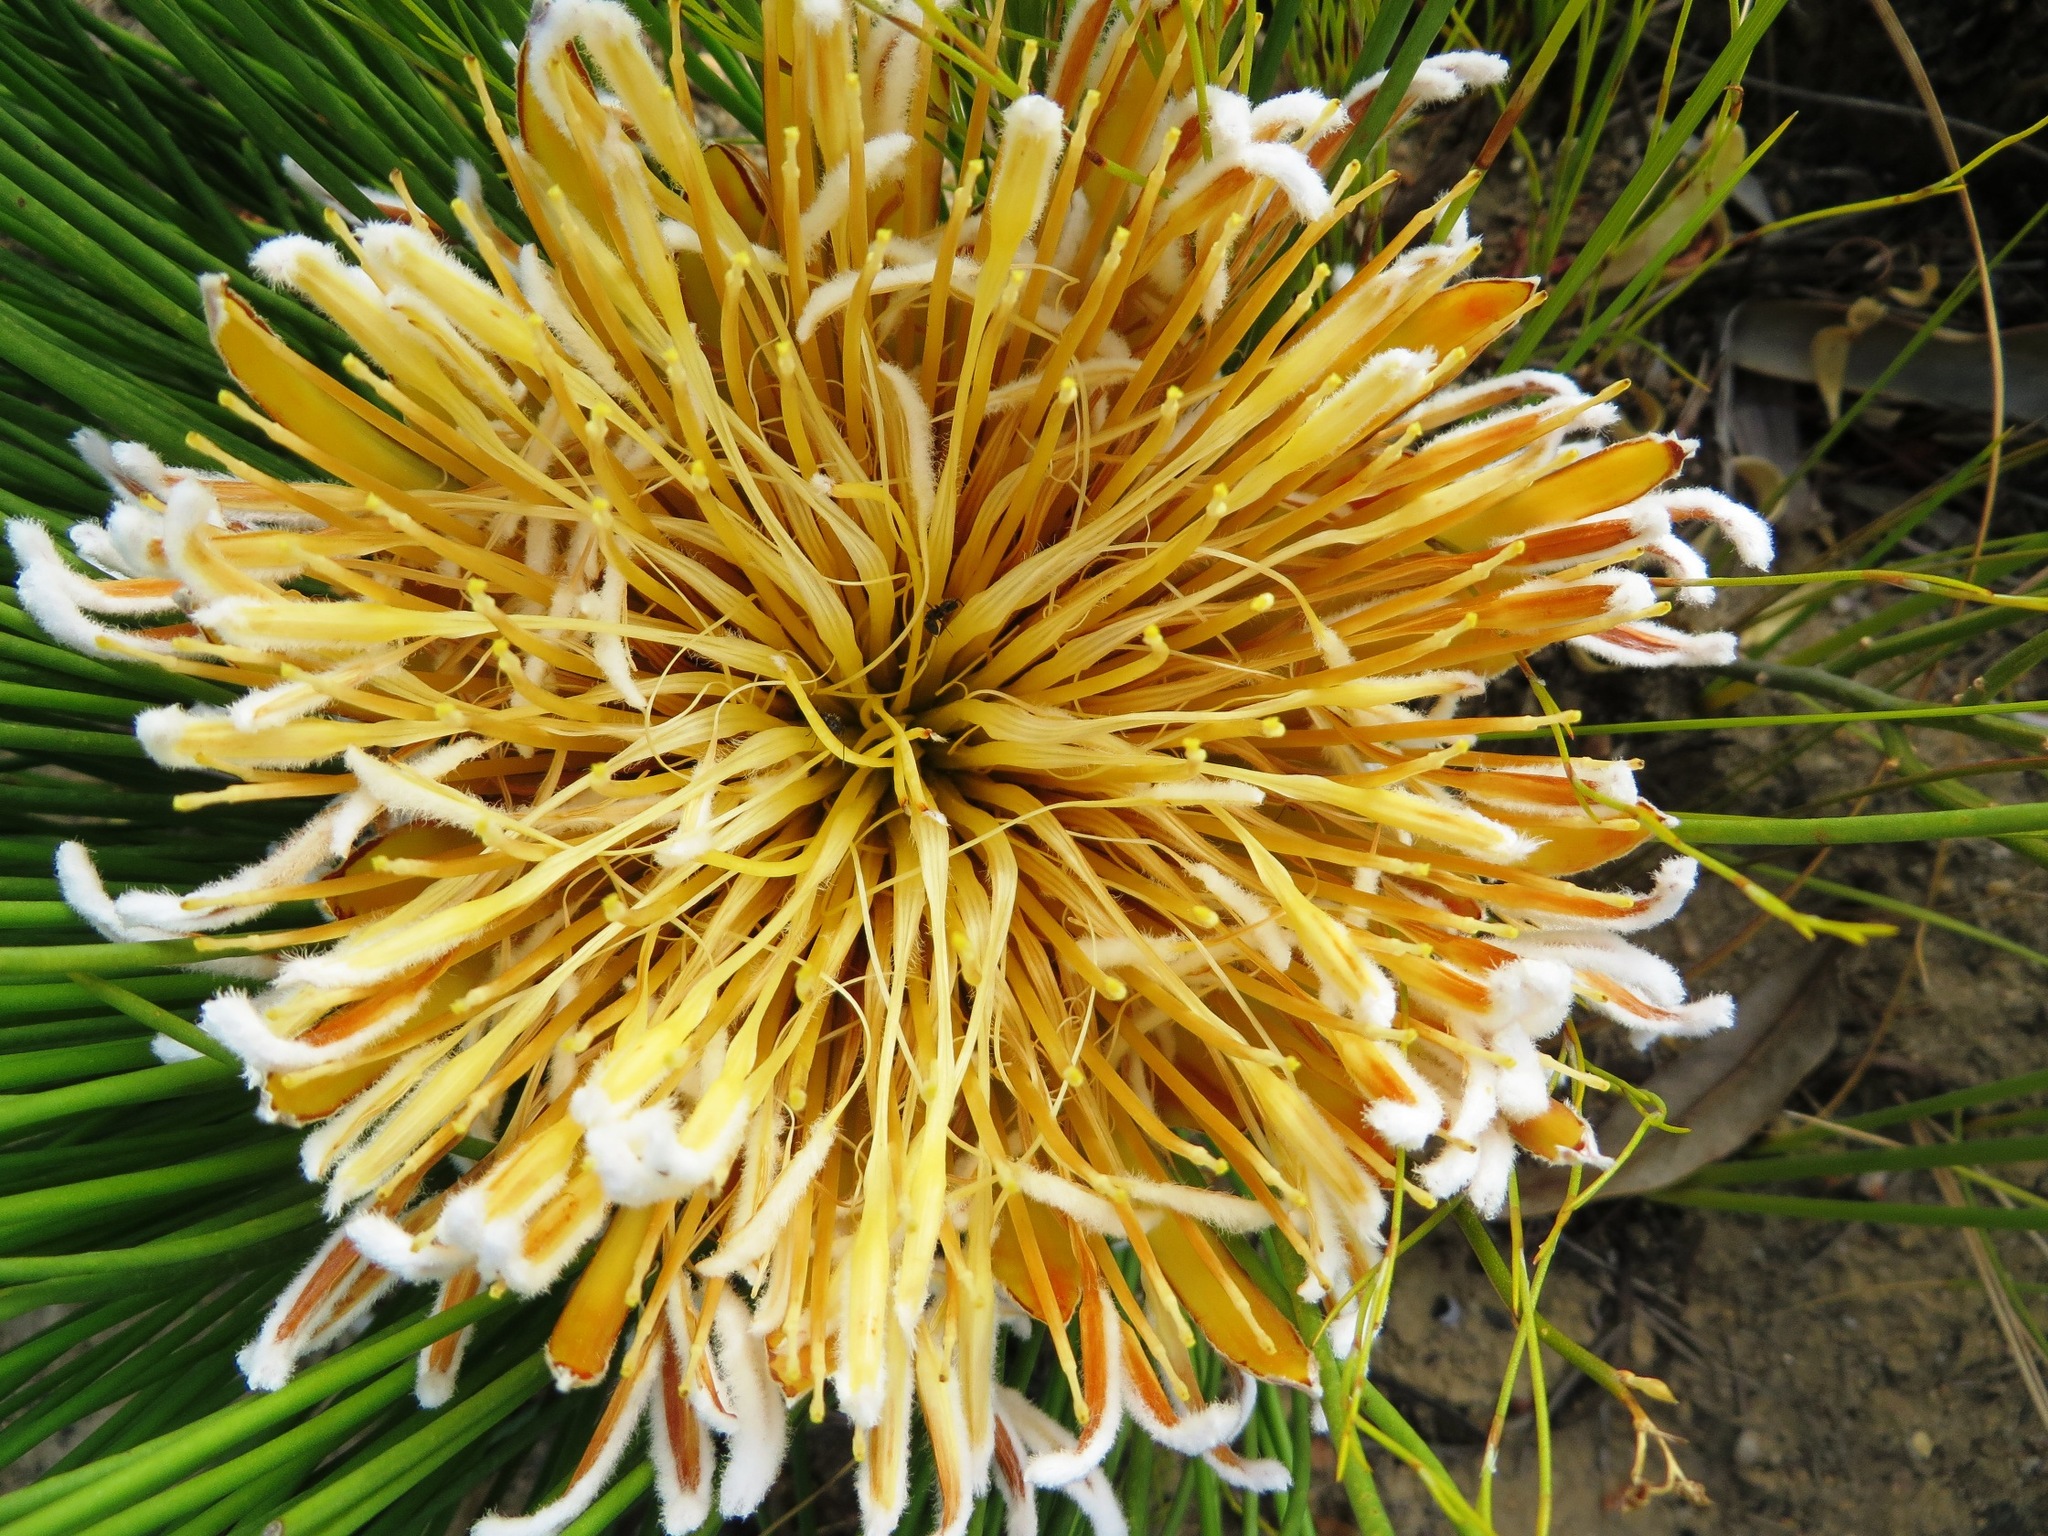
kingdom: Plantae
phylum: Tracheophyta
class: Magnoliopsida
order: Proteales
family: Proteaceae
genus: Protea
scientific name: Protea lorea
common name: Thong-leaf sugarbush
